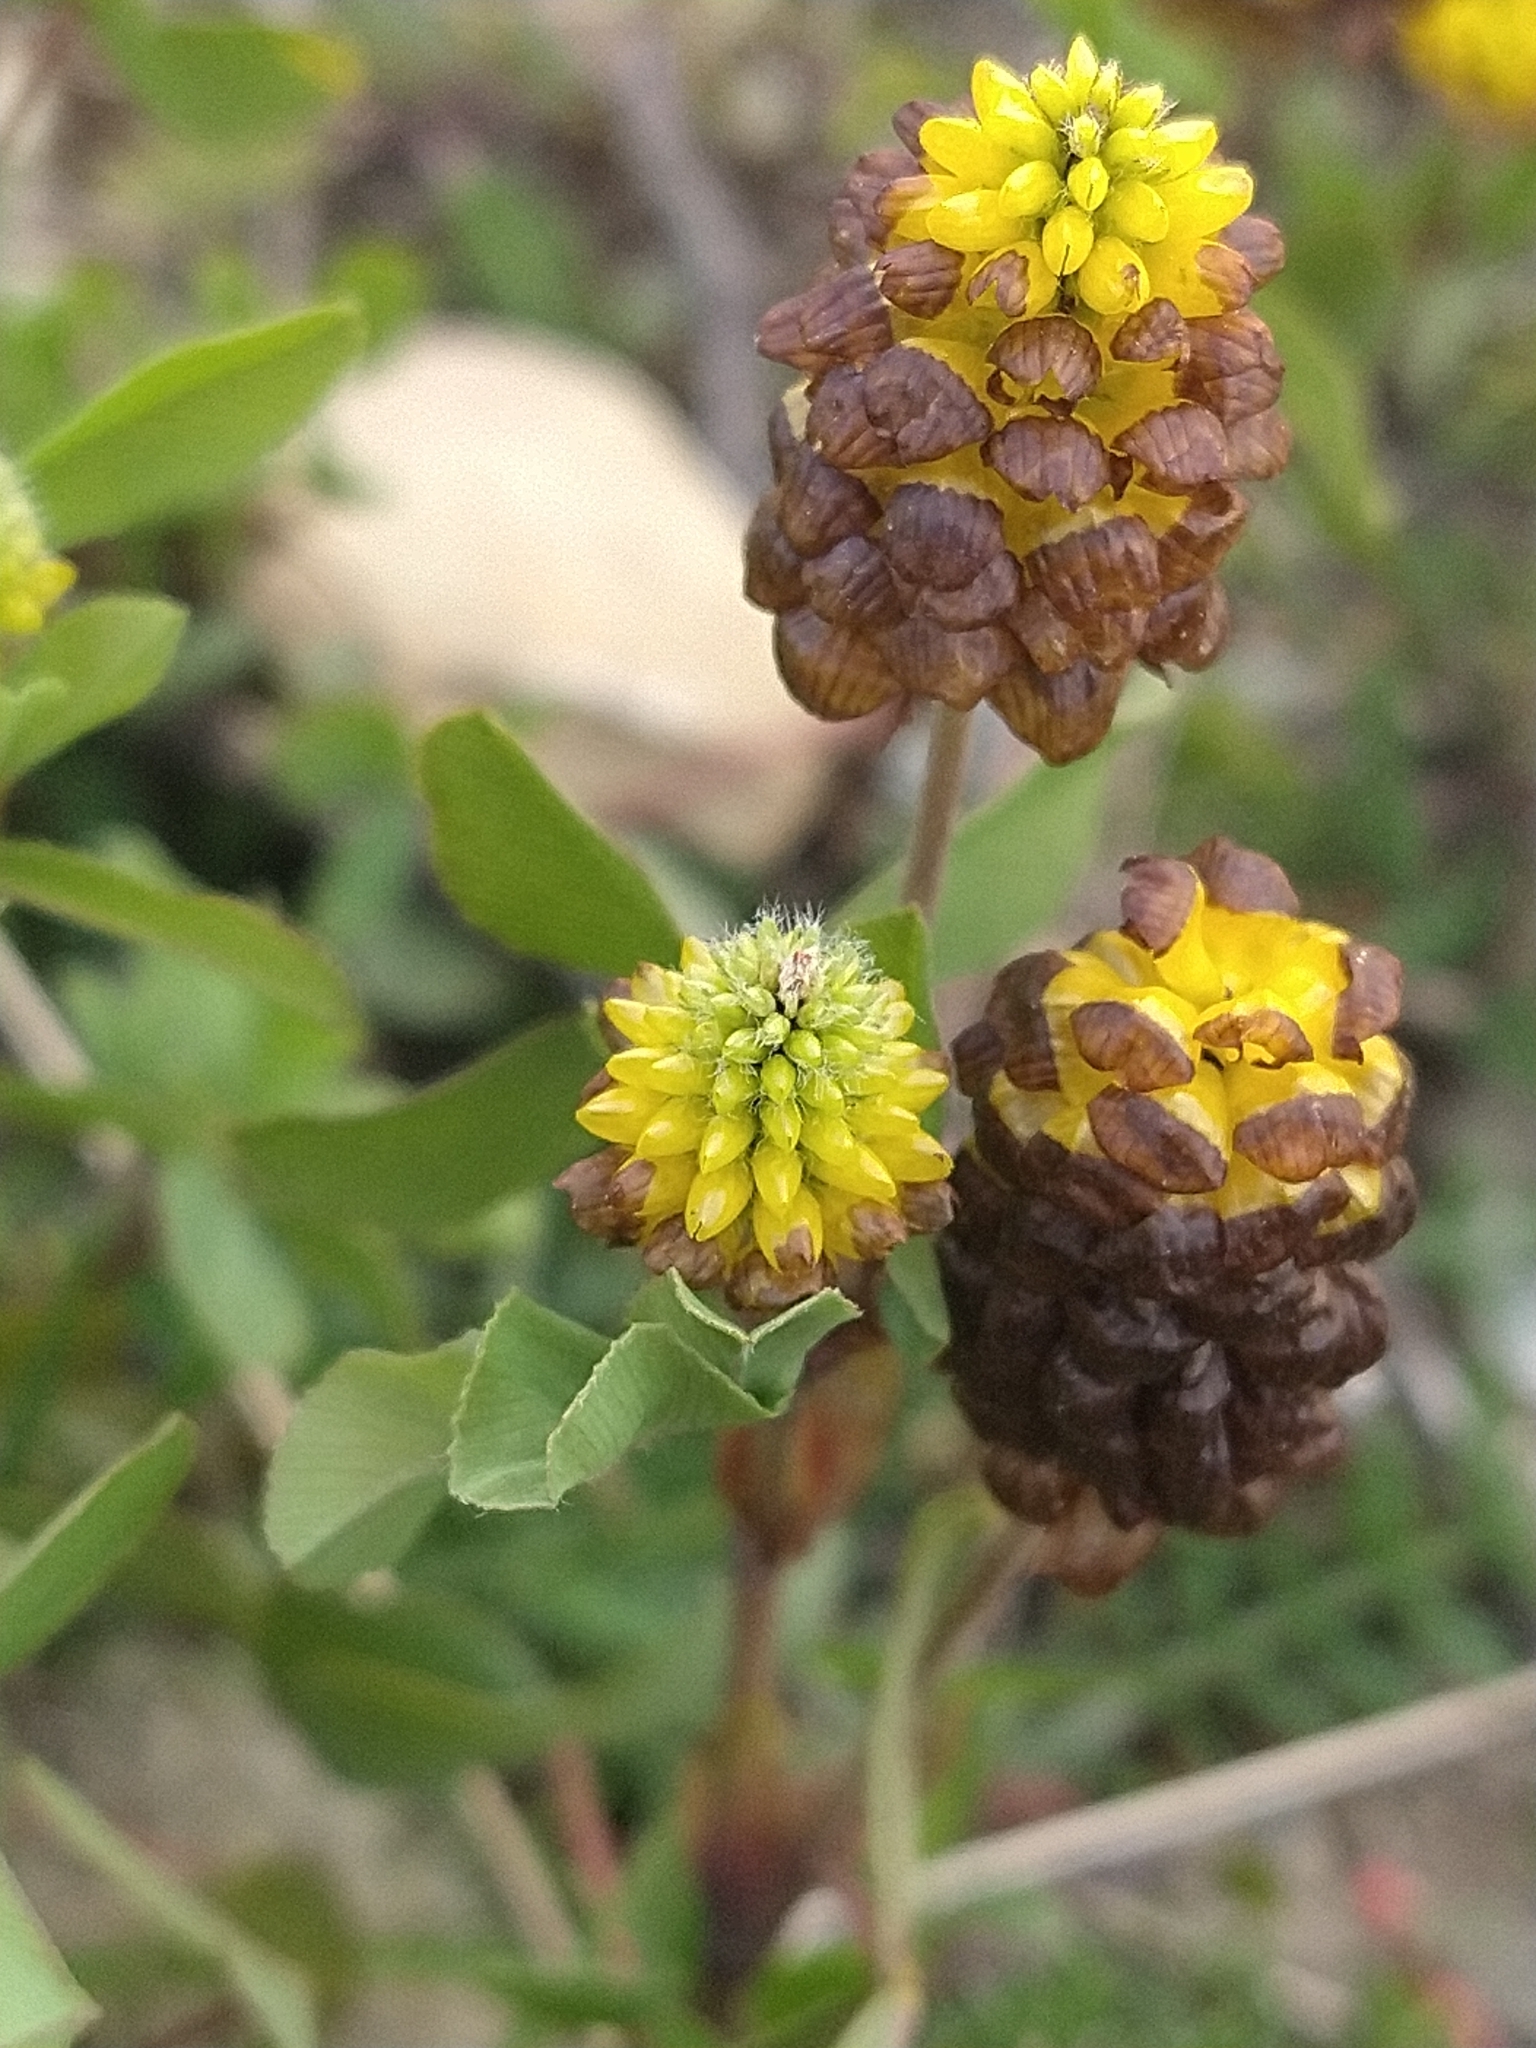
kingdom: Plantae
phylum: Tracheophyta
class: Magnoliopsida
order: Fabales
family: Fabaceae
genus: Trifolium
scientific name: Trifolium spadiceum
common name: Brown moor clover
